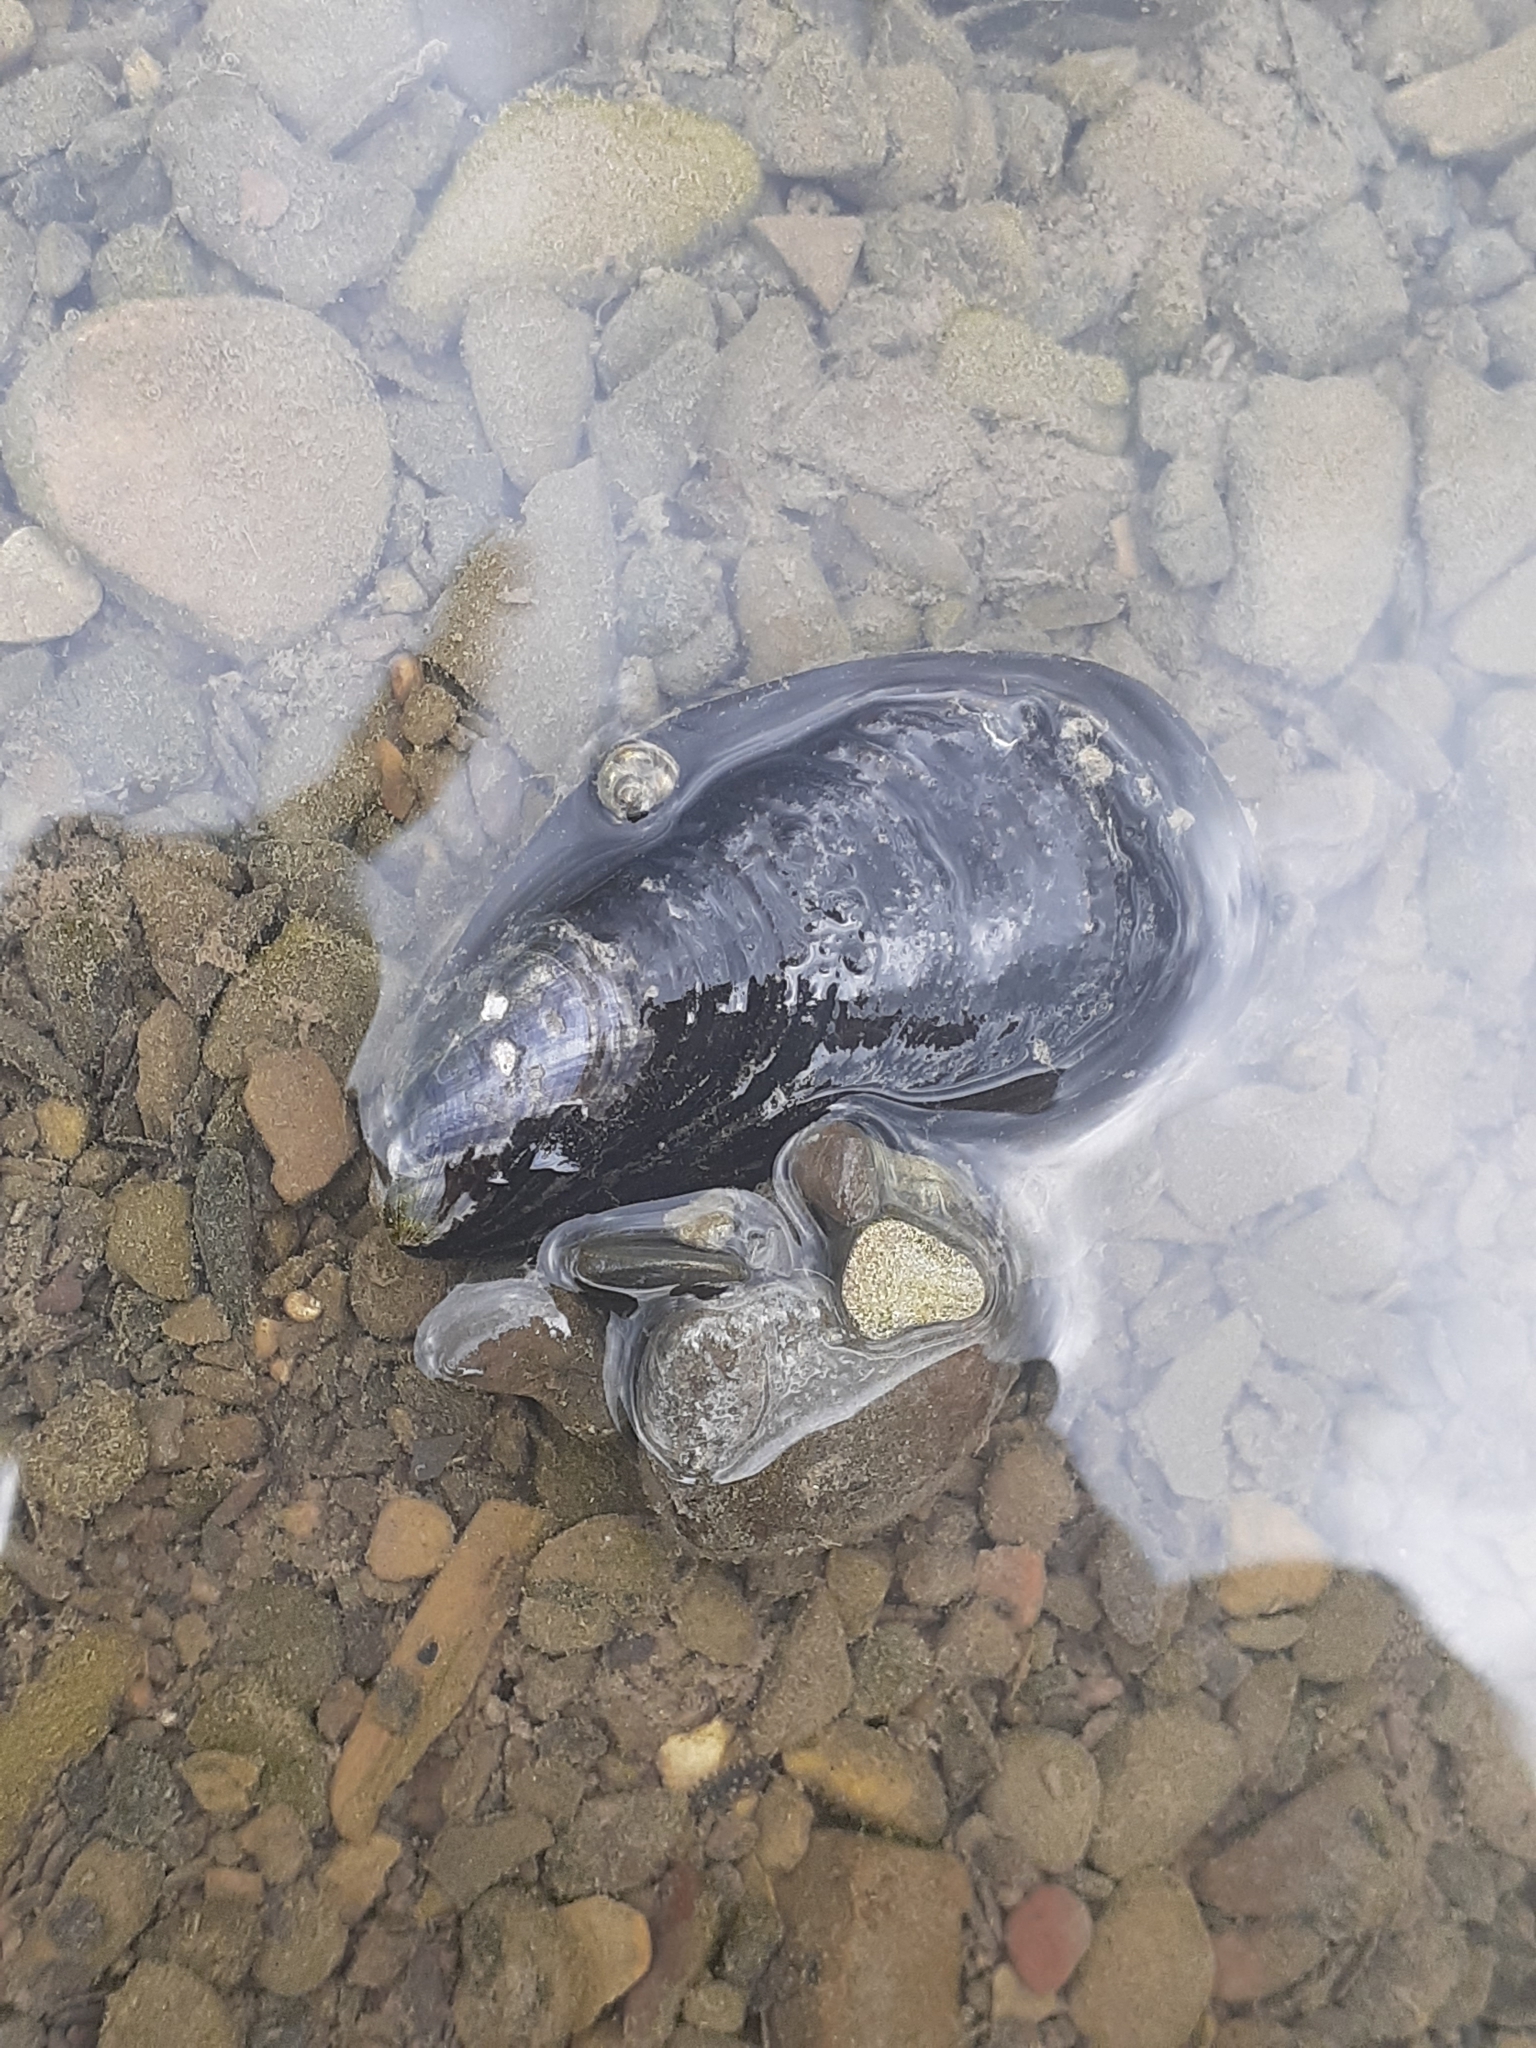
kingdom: Animalia
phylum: Mollusca
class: Bivalvia
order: Mytilida
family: Mytilidae
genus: Mytilus
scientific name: Mytilus
